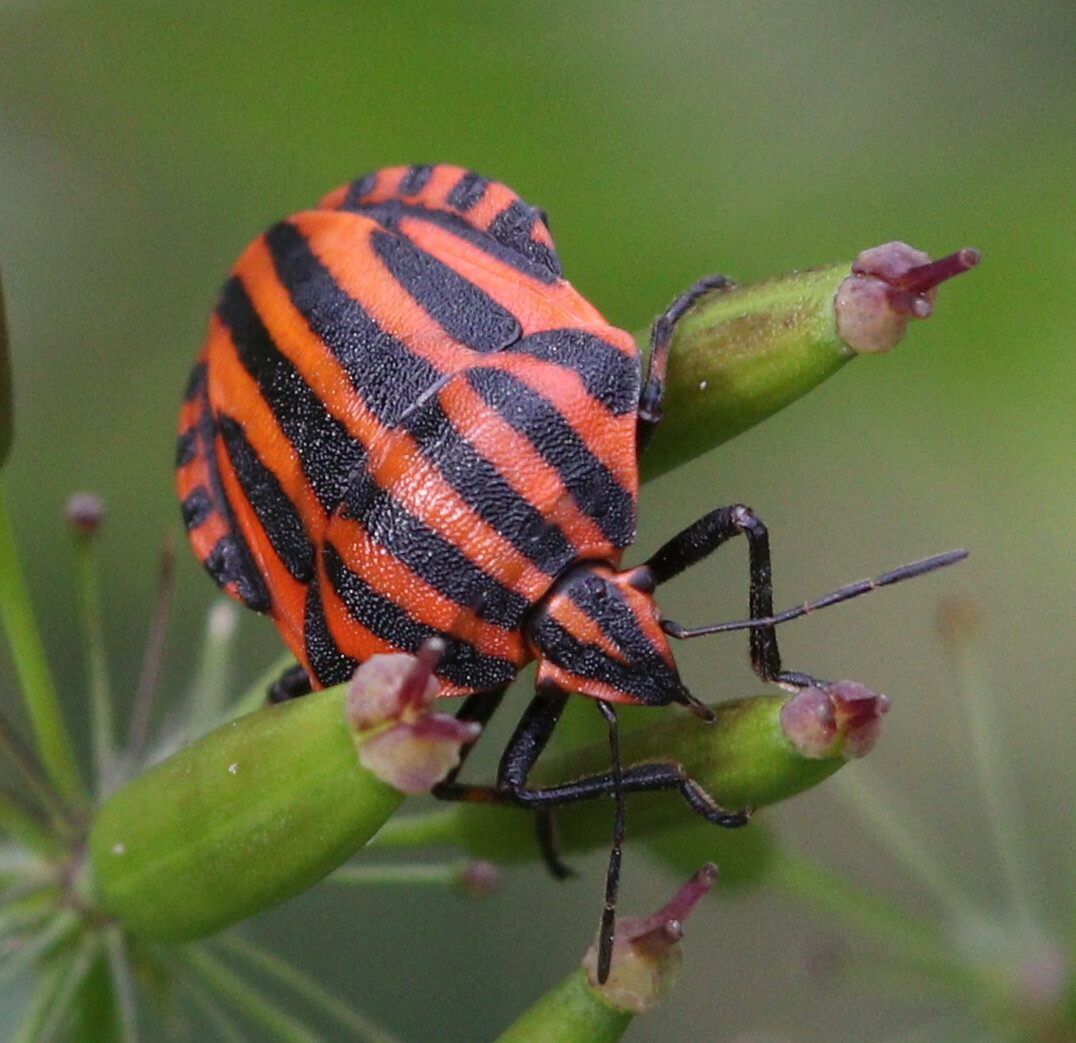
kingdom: Animalia
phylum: Arthropoda
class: Insecta
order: Hemiptera
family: Pentatomidae
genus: Graphosoma
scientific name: Graphosoma italicum
